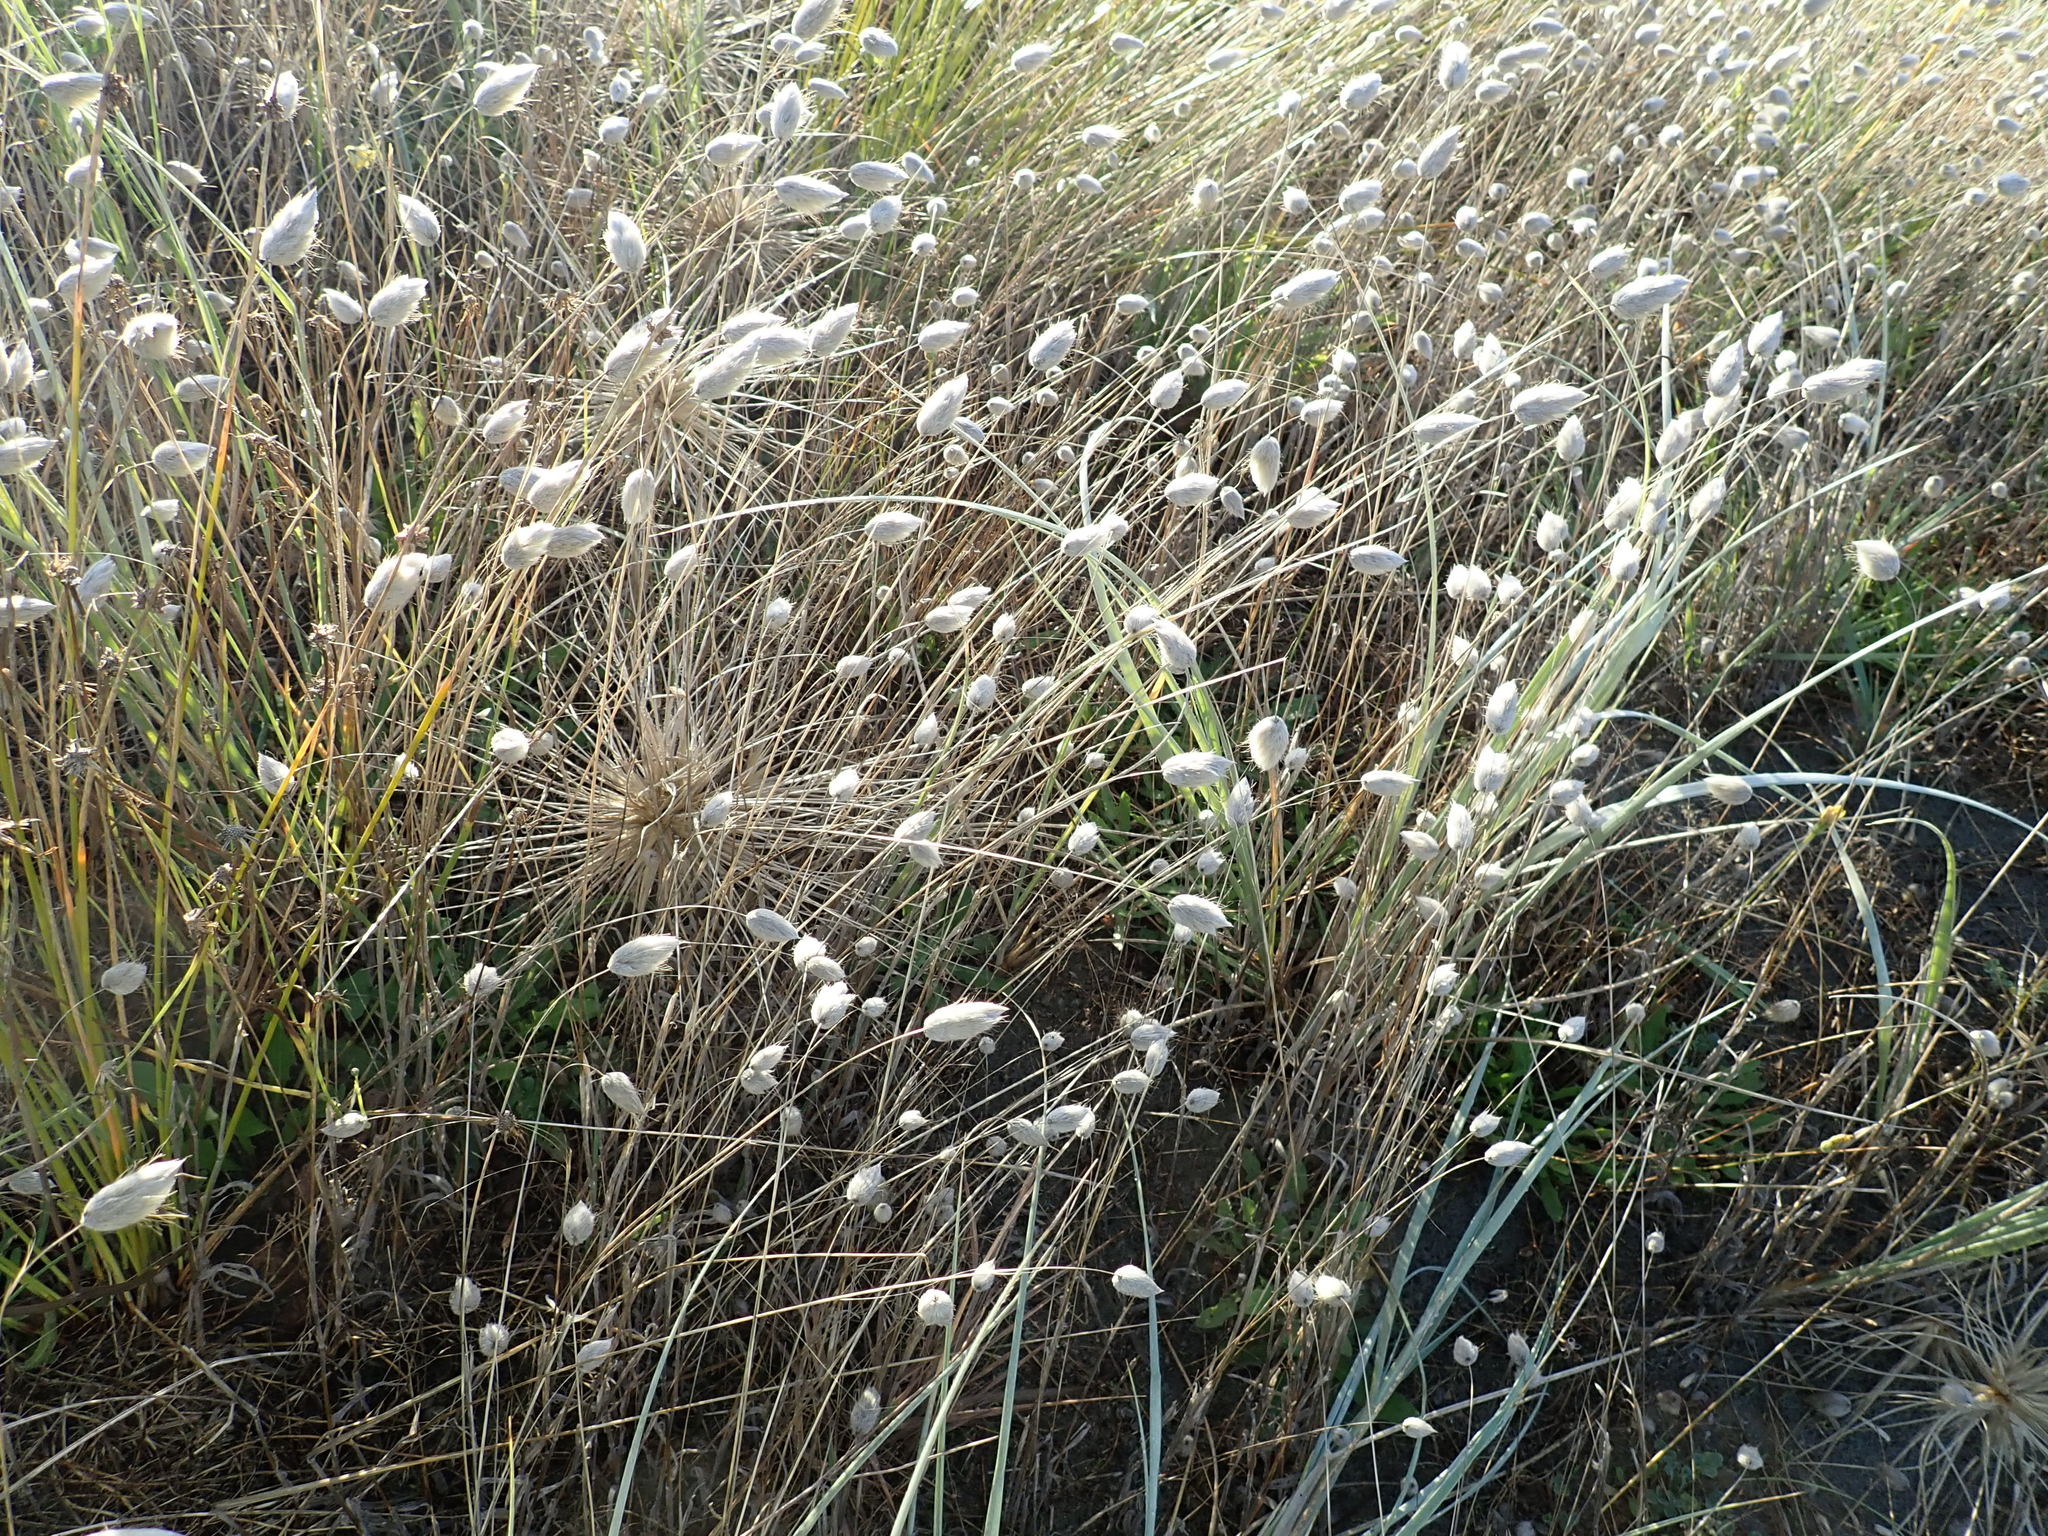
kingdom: Plantae
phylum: Tracheophyta
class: Liliopsida
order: Poales
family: Poaceae
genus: Lagurus
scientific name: Lagurus ovatus
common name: Hare's-tail
